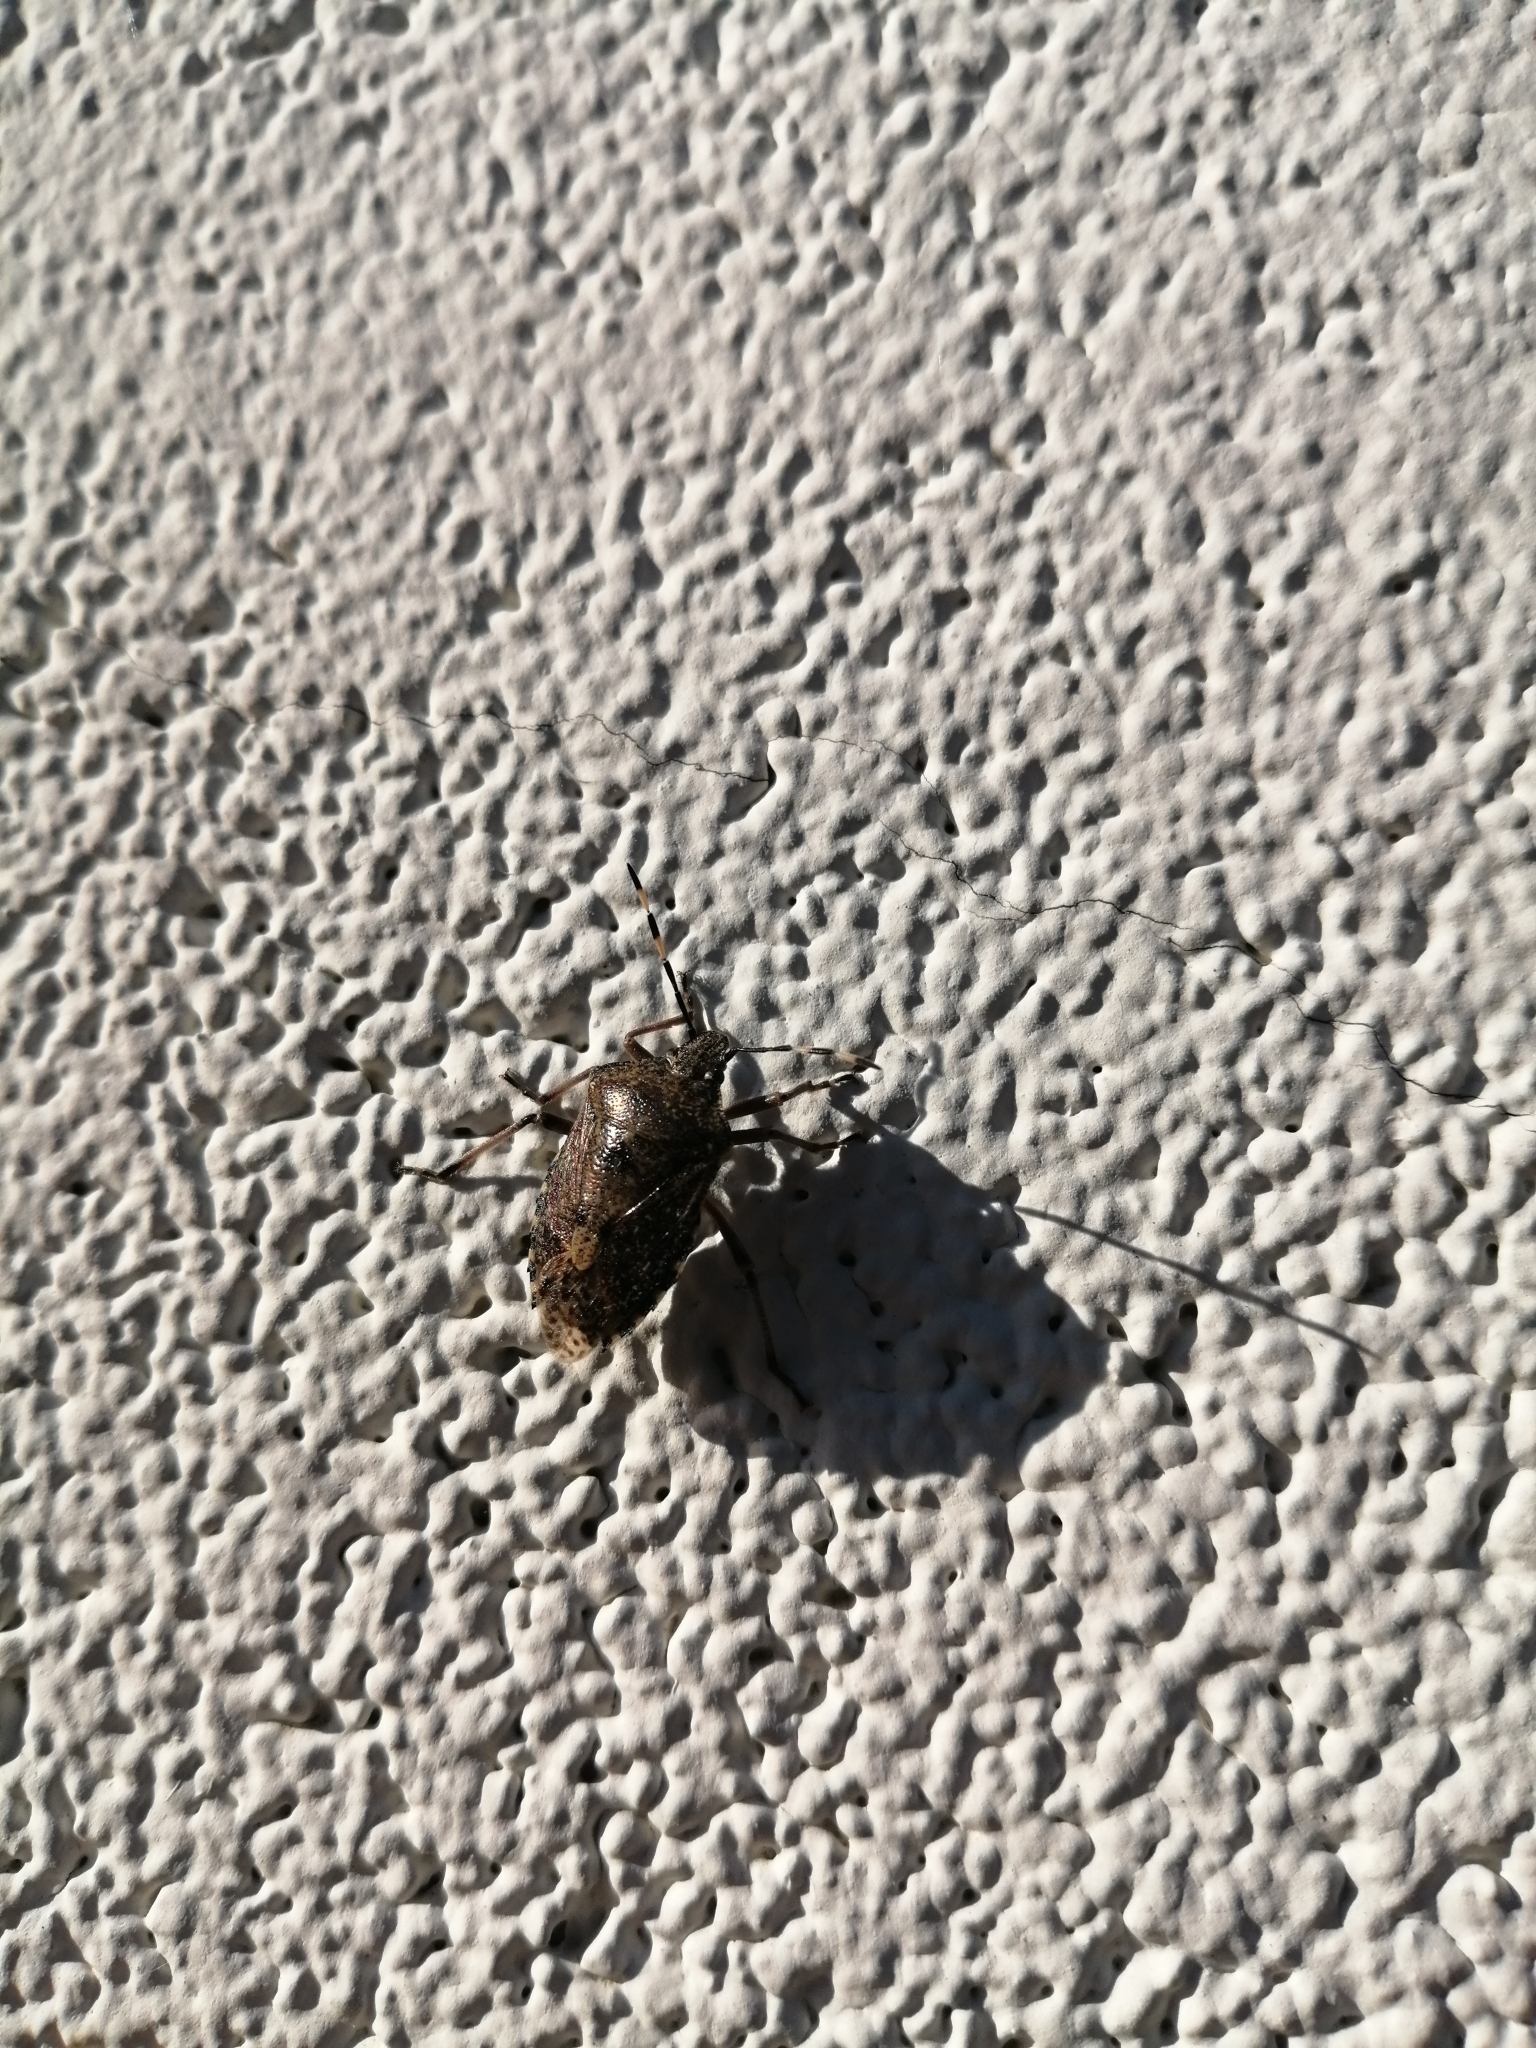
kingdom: Animalia
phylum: Arthropoda
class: Insecta
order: Hemiptera
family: Pentatomidae
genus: Rhaphigaster
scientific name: Rhaphigaster nebulosa
